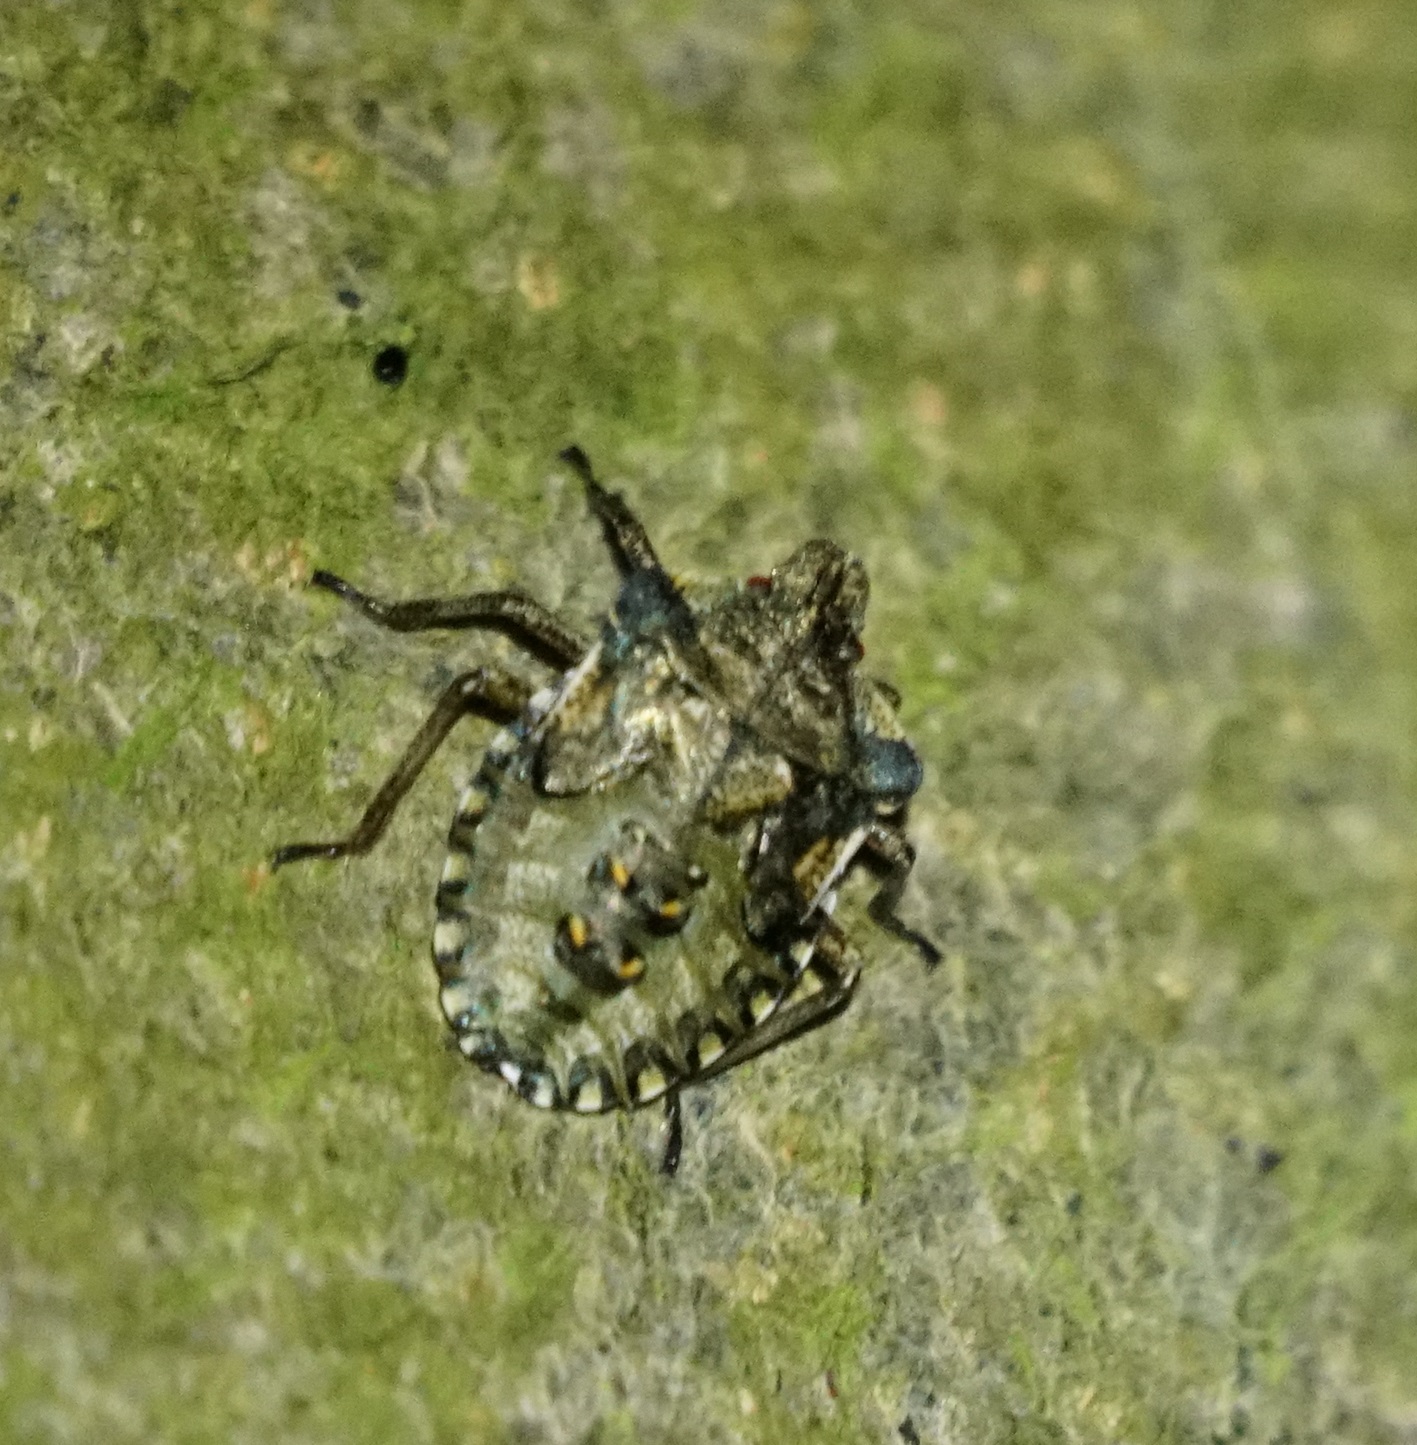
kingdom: Animalia
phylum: Arthropoda
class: Insecta
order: Hemiptera
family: Pentatomidae
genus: Pentatoma
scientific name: Pentatoma rufipes
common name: Forest bug
